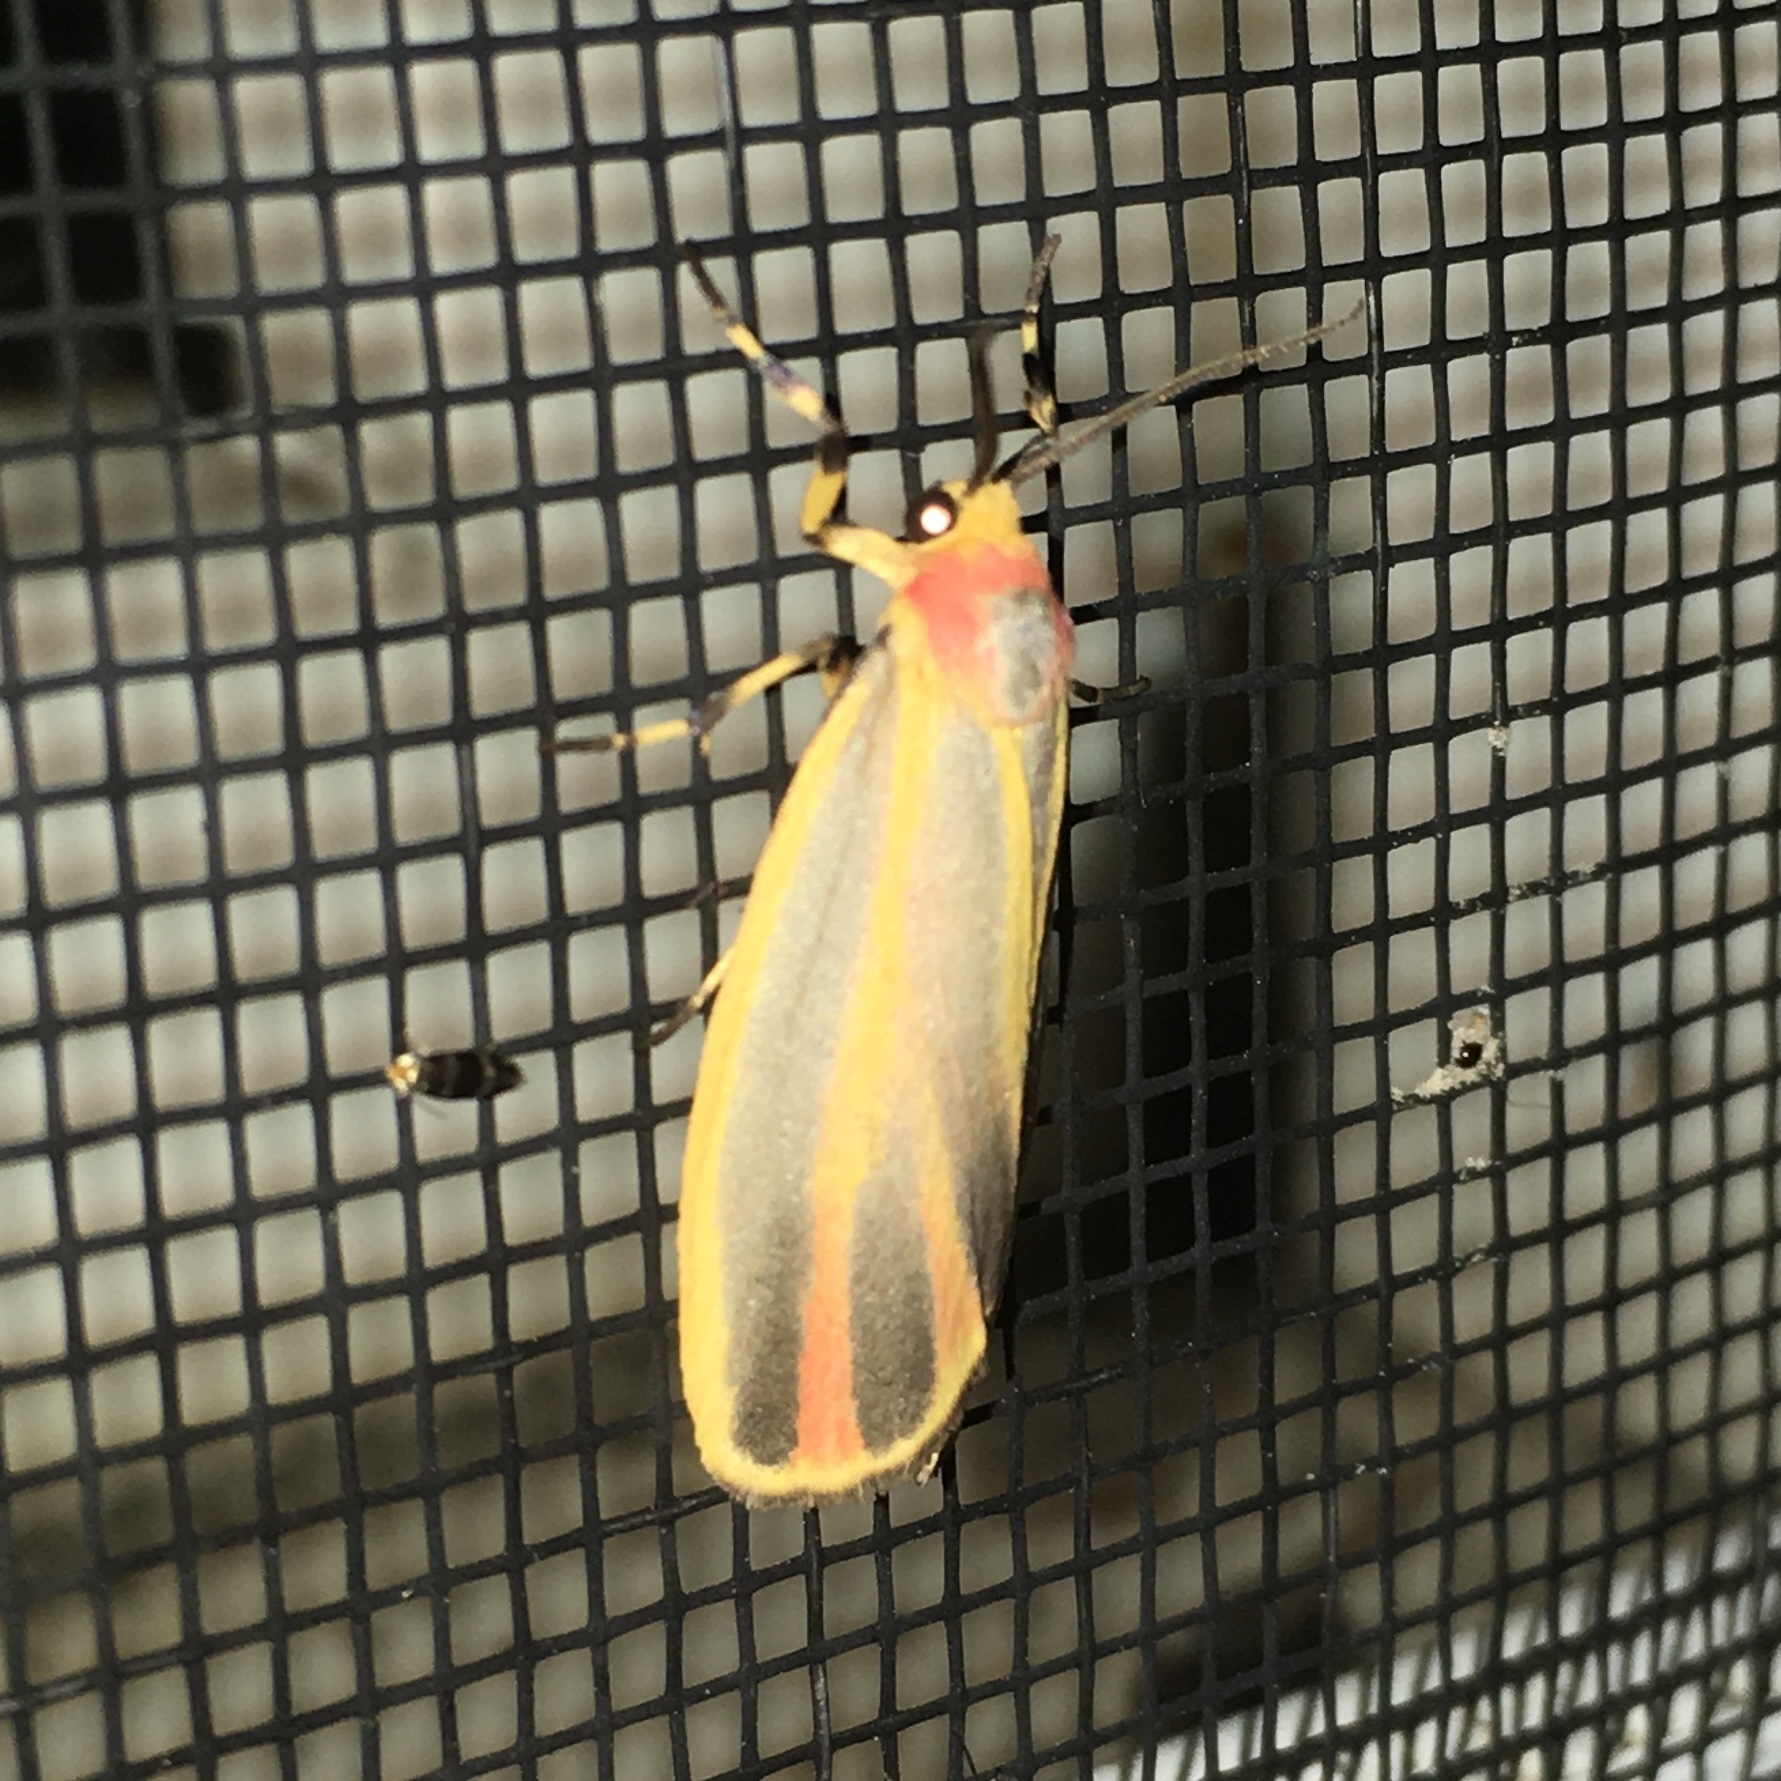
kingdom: Animalia
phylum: Arthropoda
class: Insecta
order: Lepidoptera
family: Erebidae
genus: Hypoprepia
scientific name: Hypoprepia fucosa
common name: Painted lichen moth
